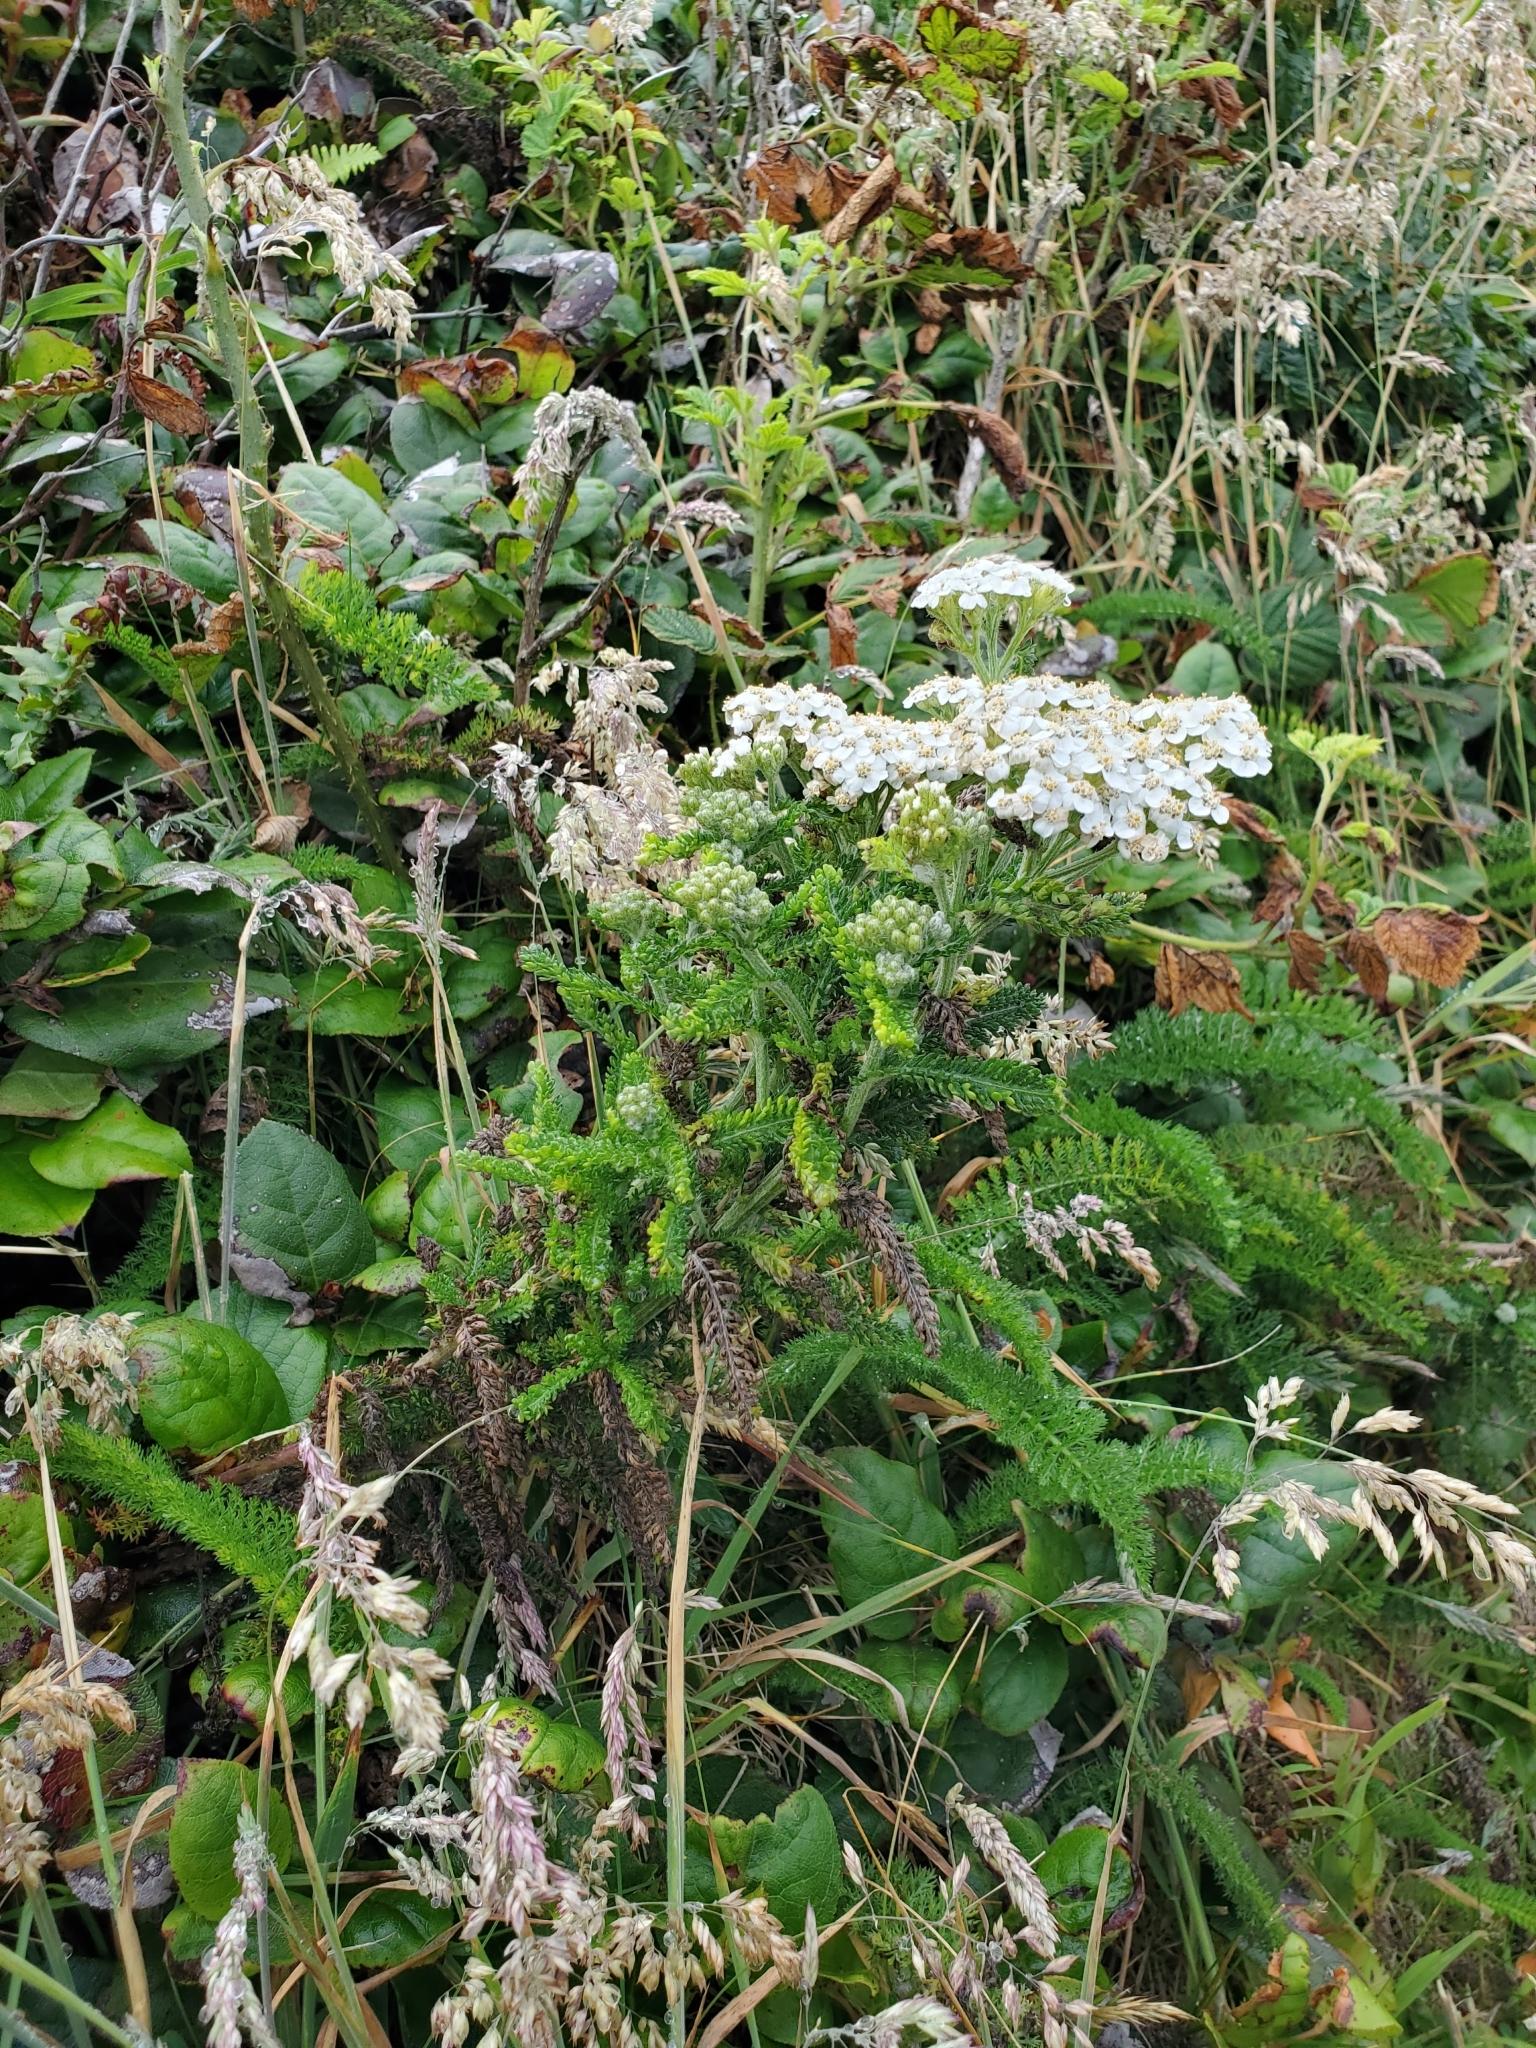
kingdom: Plantae
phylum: Tracheophyta
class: Magnoliopsida
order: Asterales
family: Asteraceae
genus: Achillea
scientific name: Achillea millefolium
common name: Yarrow
